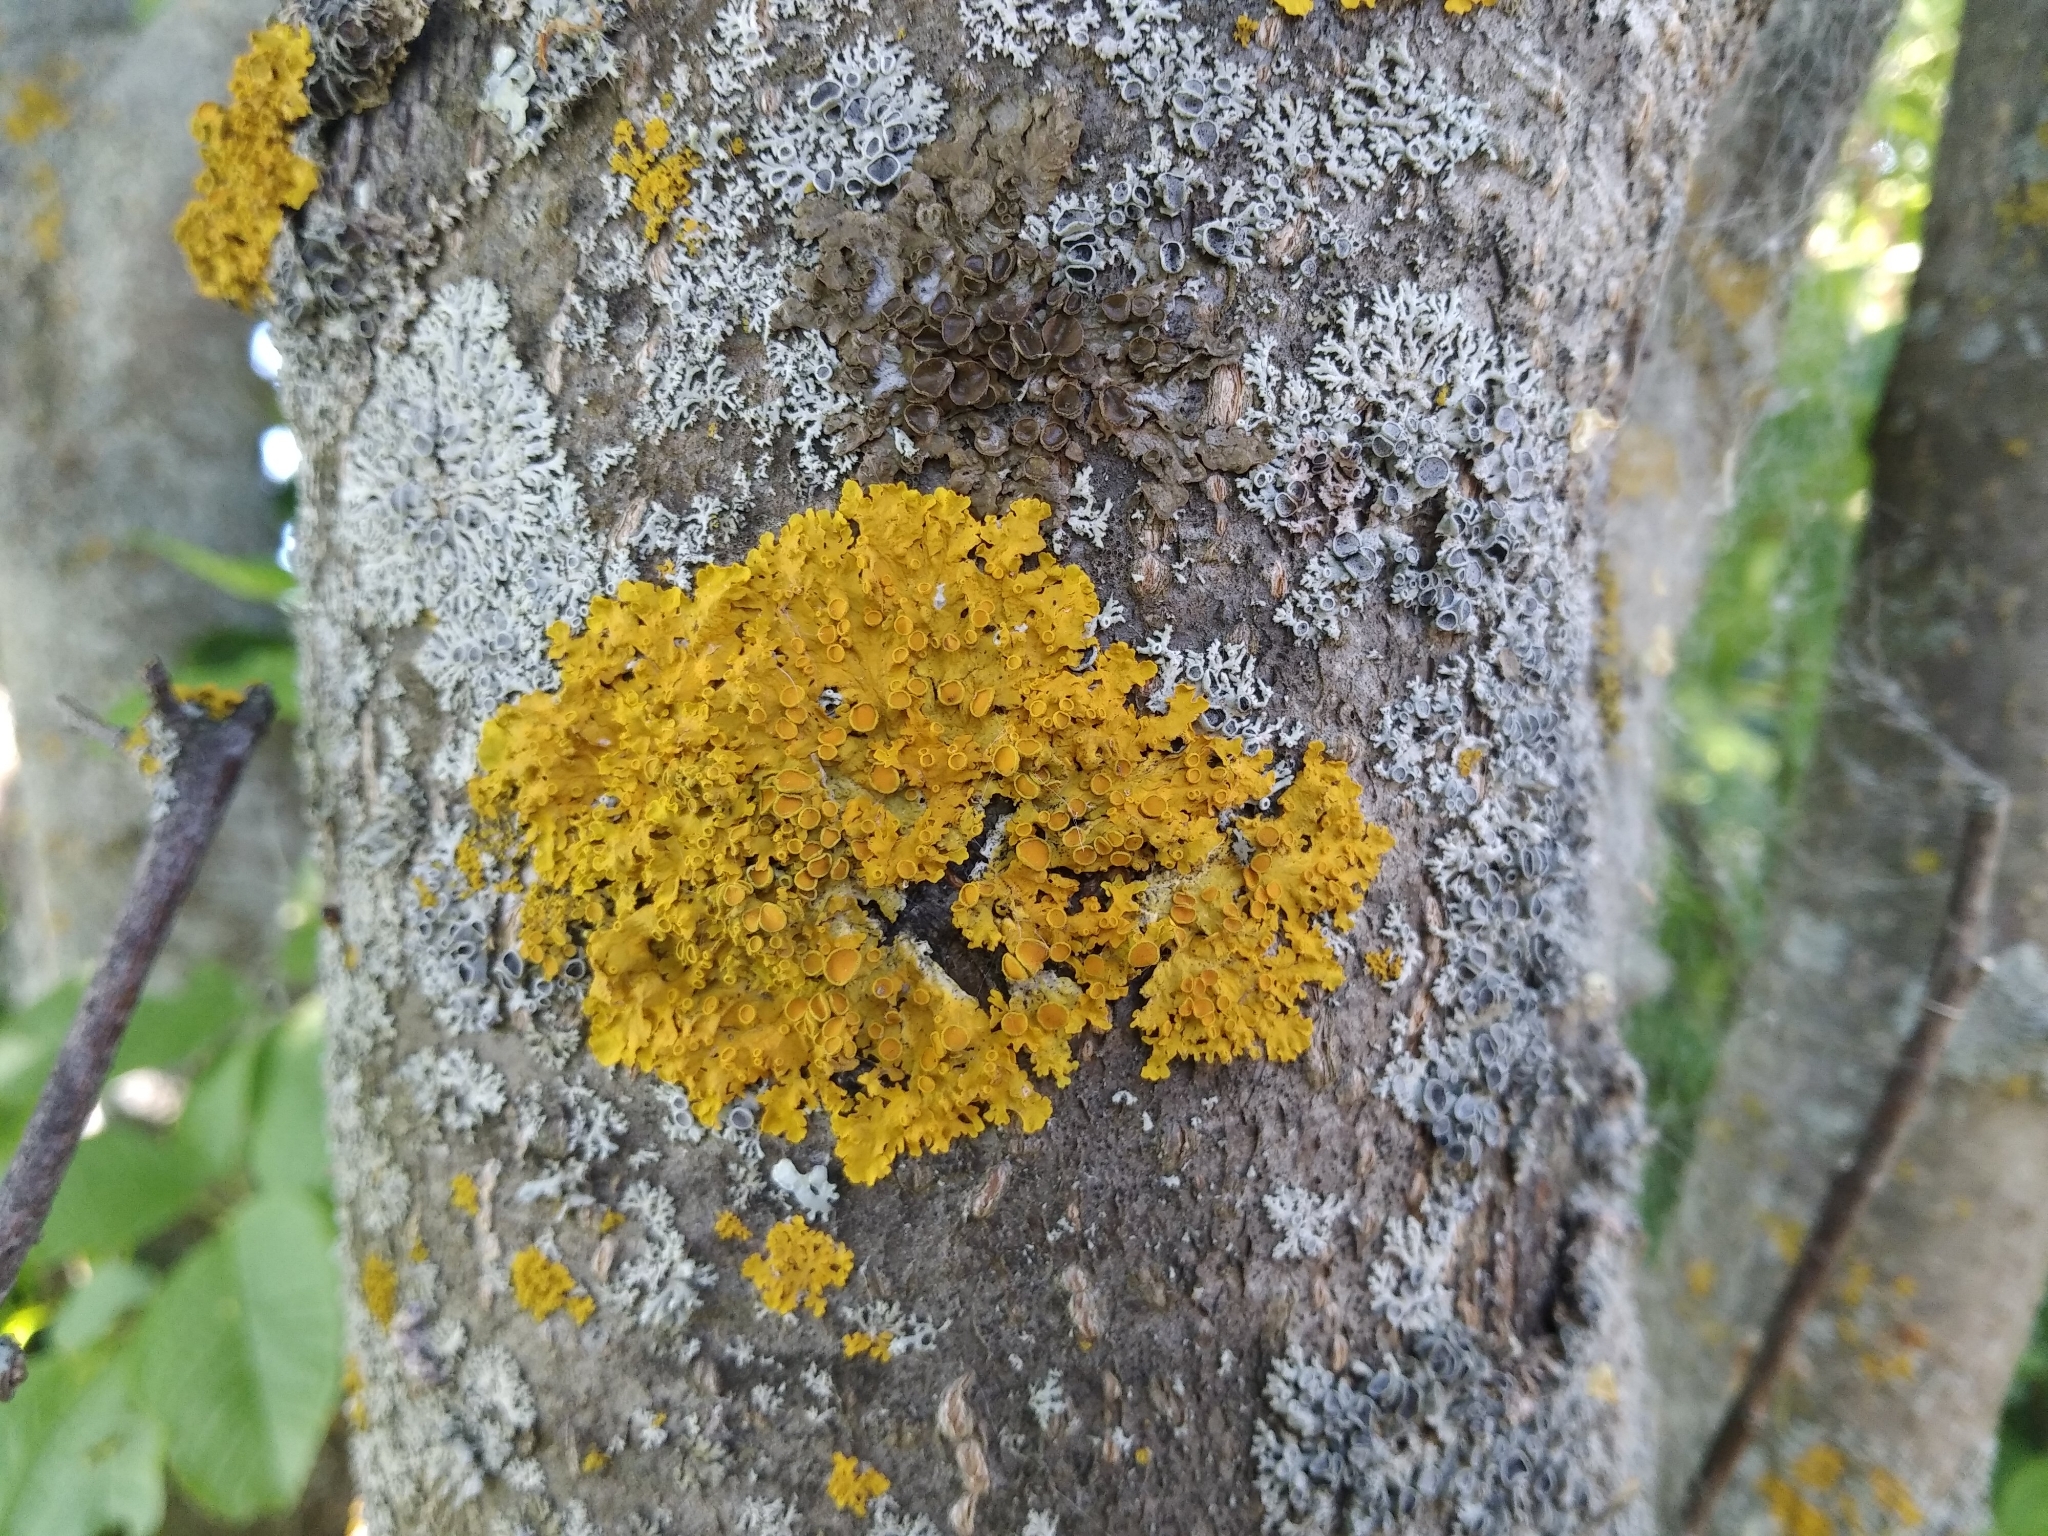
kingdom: Fungi
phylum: Ascomycota
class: Lecanoromycetes
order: Teloschistales
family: Teloschistaceae
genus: Xanthoria
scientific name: Xanthoria parietina
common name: Common orange lichen
